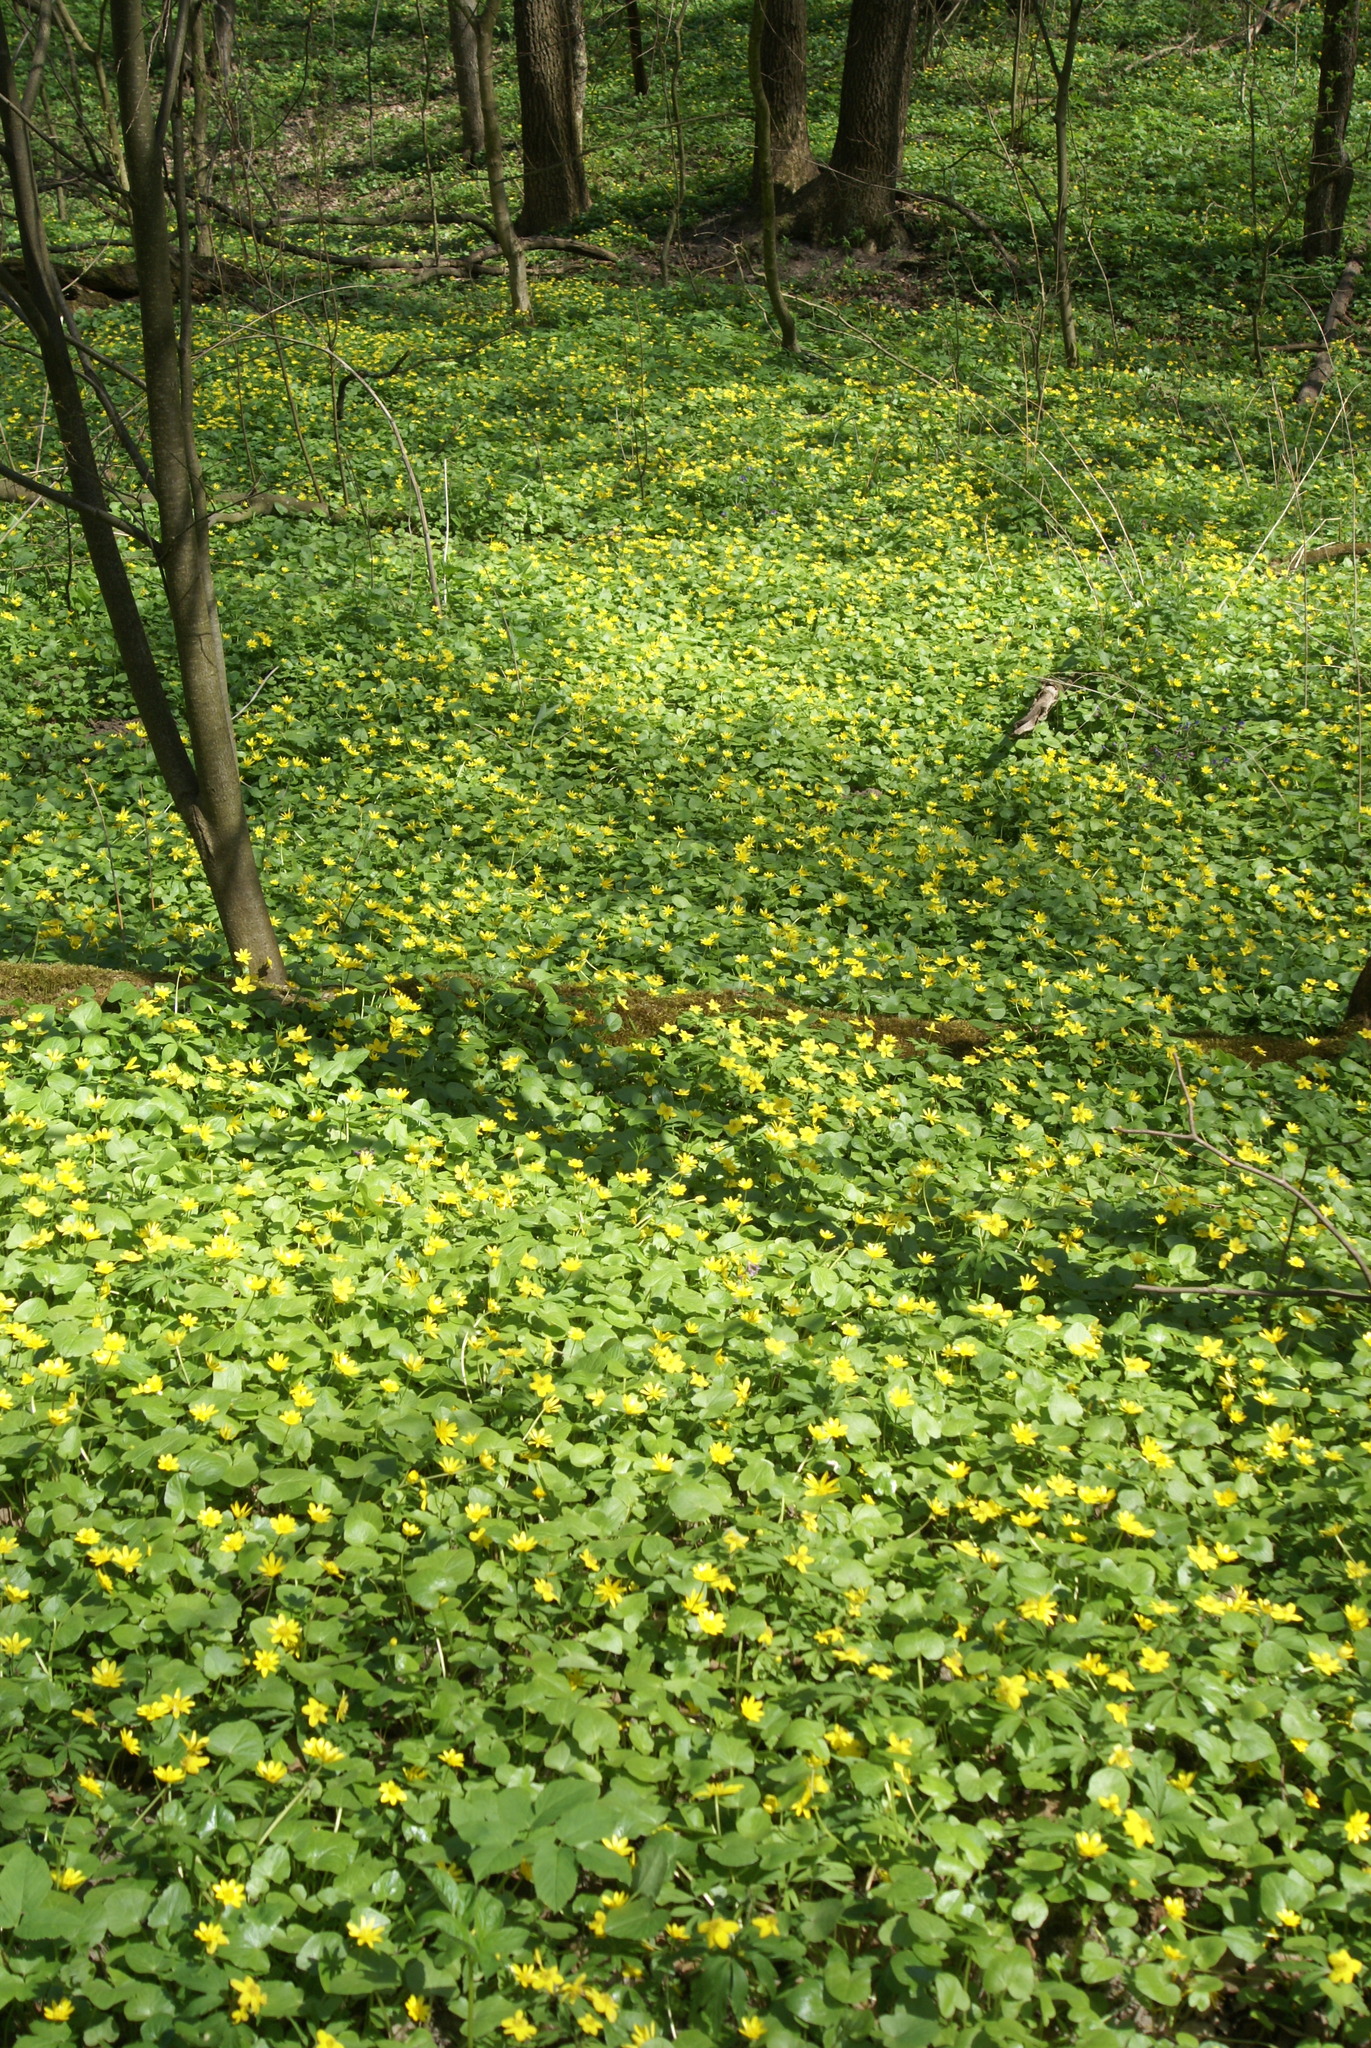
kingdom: Plantae
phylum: Tracheophyta
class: Magnoliopsida
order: Ranunculales
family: Ranunculaceae
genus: Ficaria
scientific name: Ficaria verna
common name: Lesser celandine
